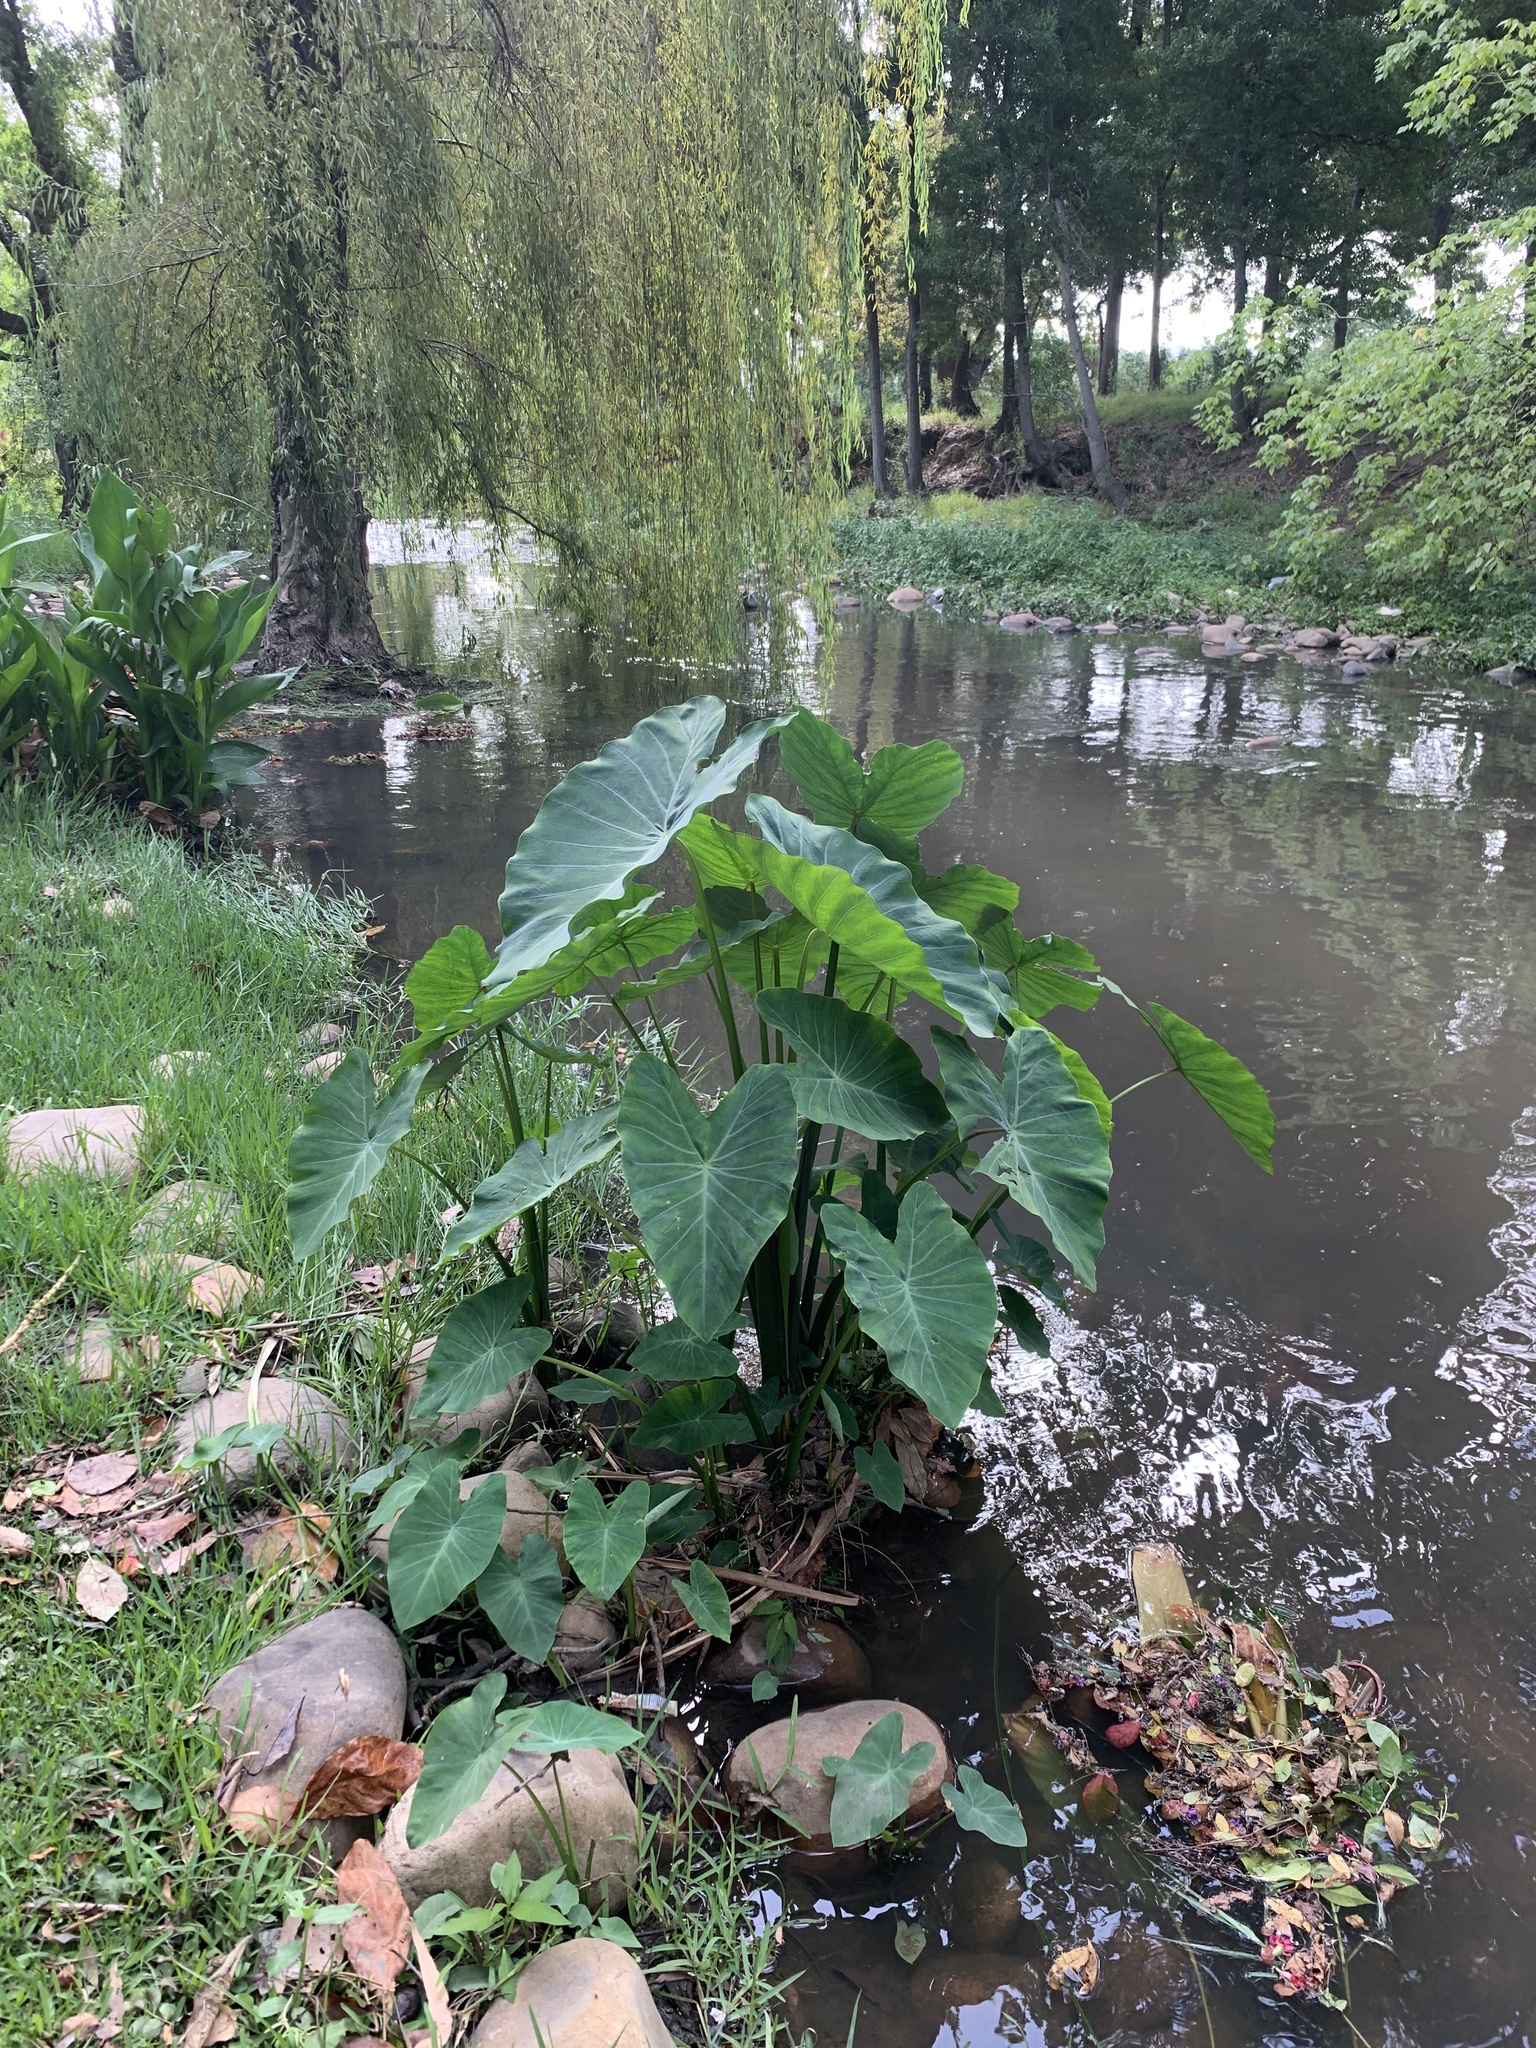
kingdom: Plantae
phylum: Tracheophyta
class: Liliopsida
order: Alismatales
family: Araceae
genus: Colocasia
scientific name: Colocasia esculenta
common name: Taro
